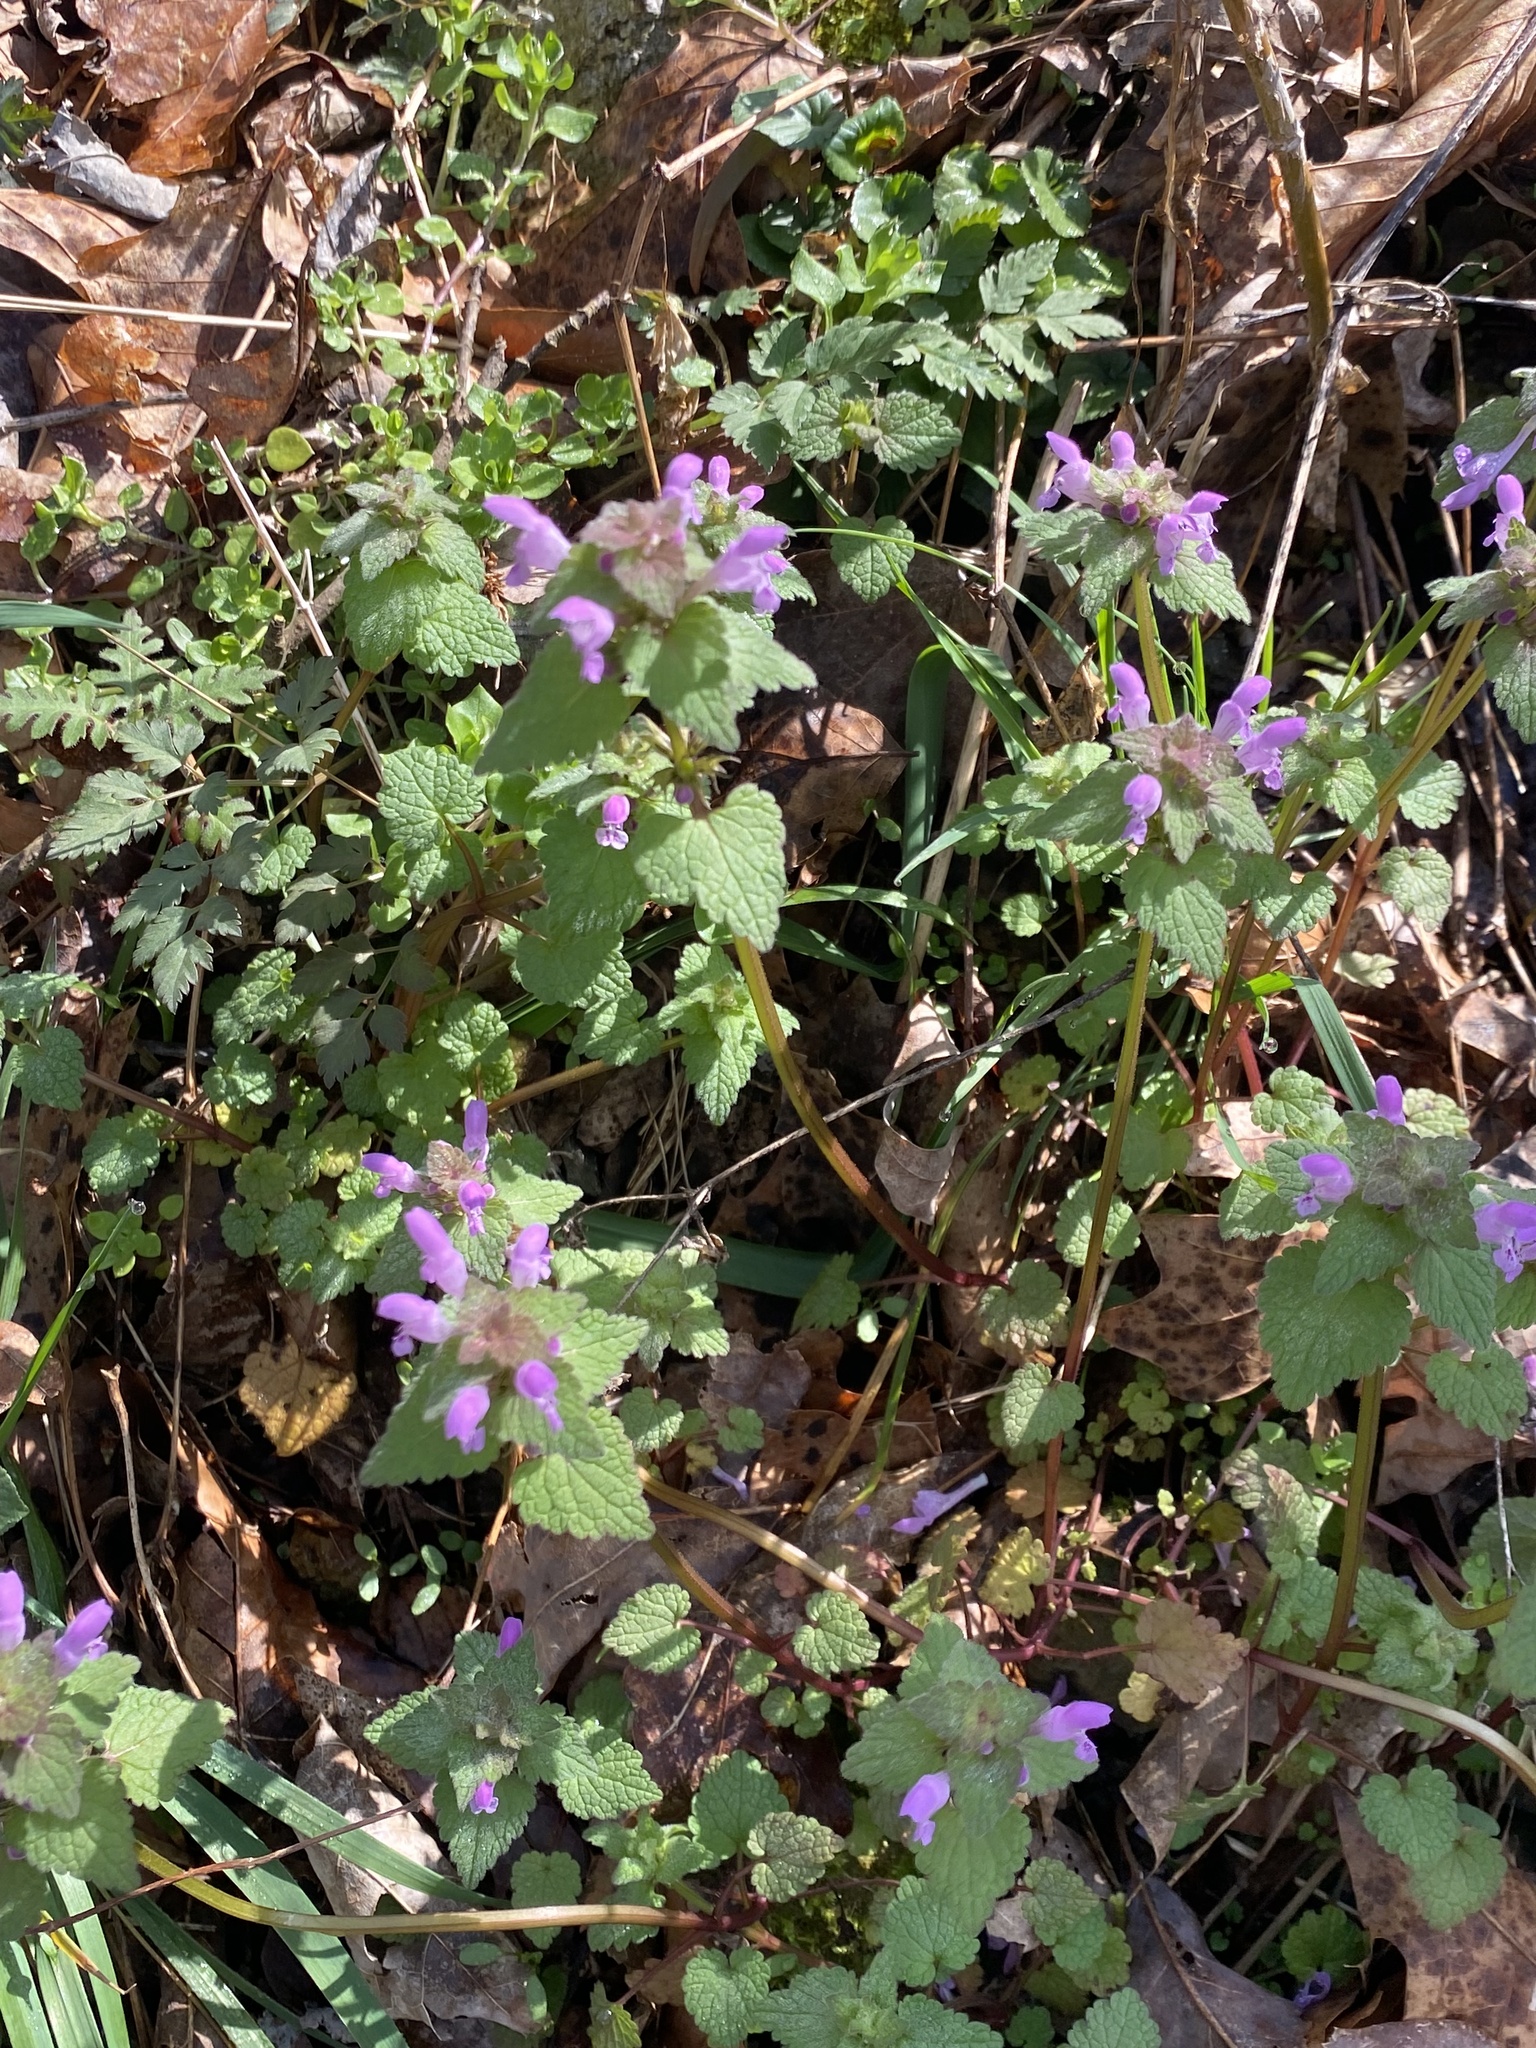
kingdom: Plantae
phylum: Tracheophyta
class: Magnoliopsida
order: Lamiales
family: Lamiaceae
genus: Lamium
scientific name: Lamium purpureum
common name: Red dead-nettle
